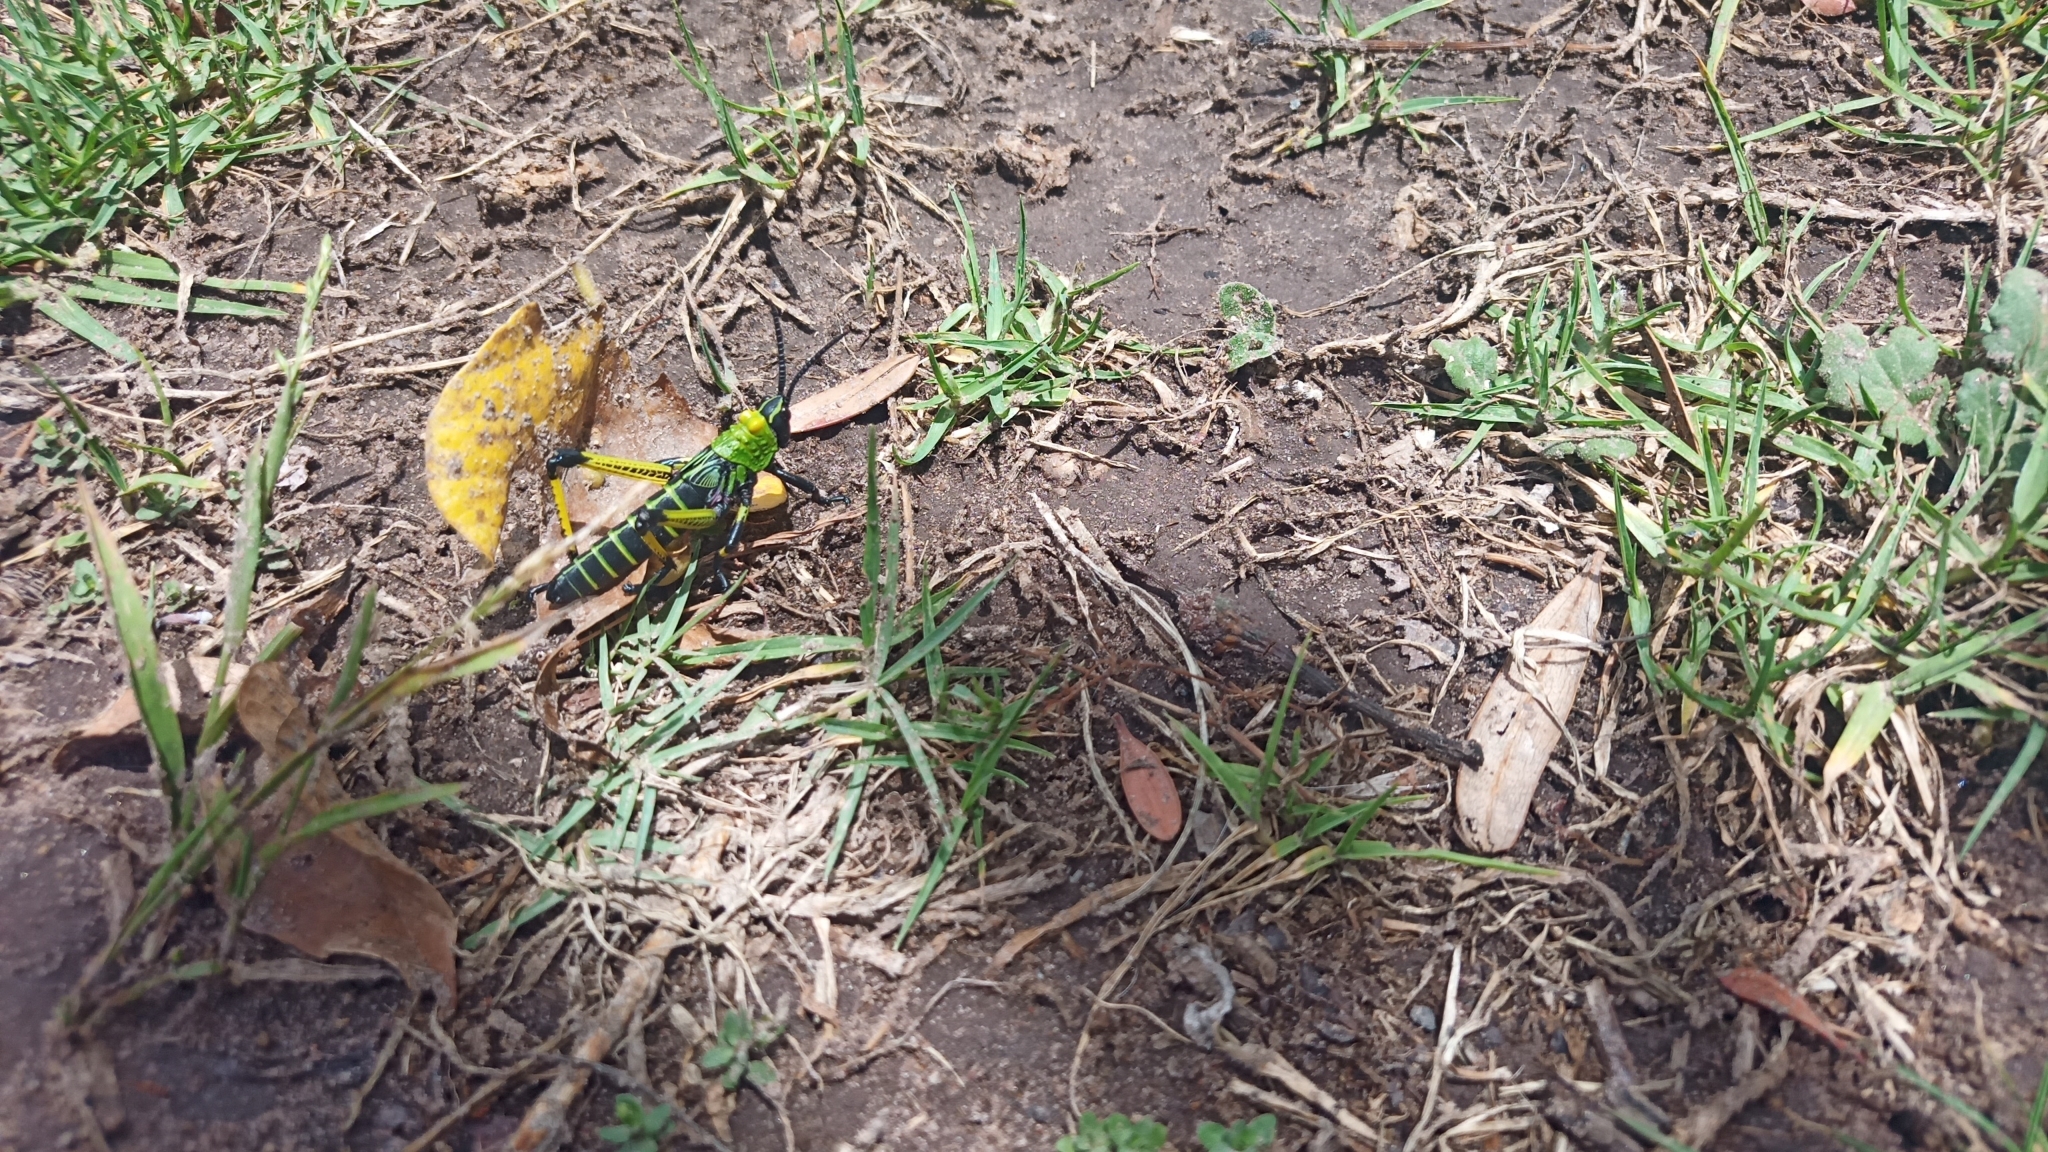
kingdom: Animalia
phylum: Arthropoda
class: Insecta
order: Orthoptera
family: Pyrgomorphidae
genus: Phymateus
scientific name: Phymateus leprosus
